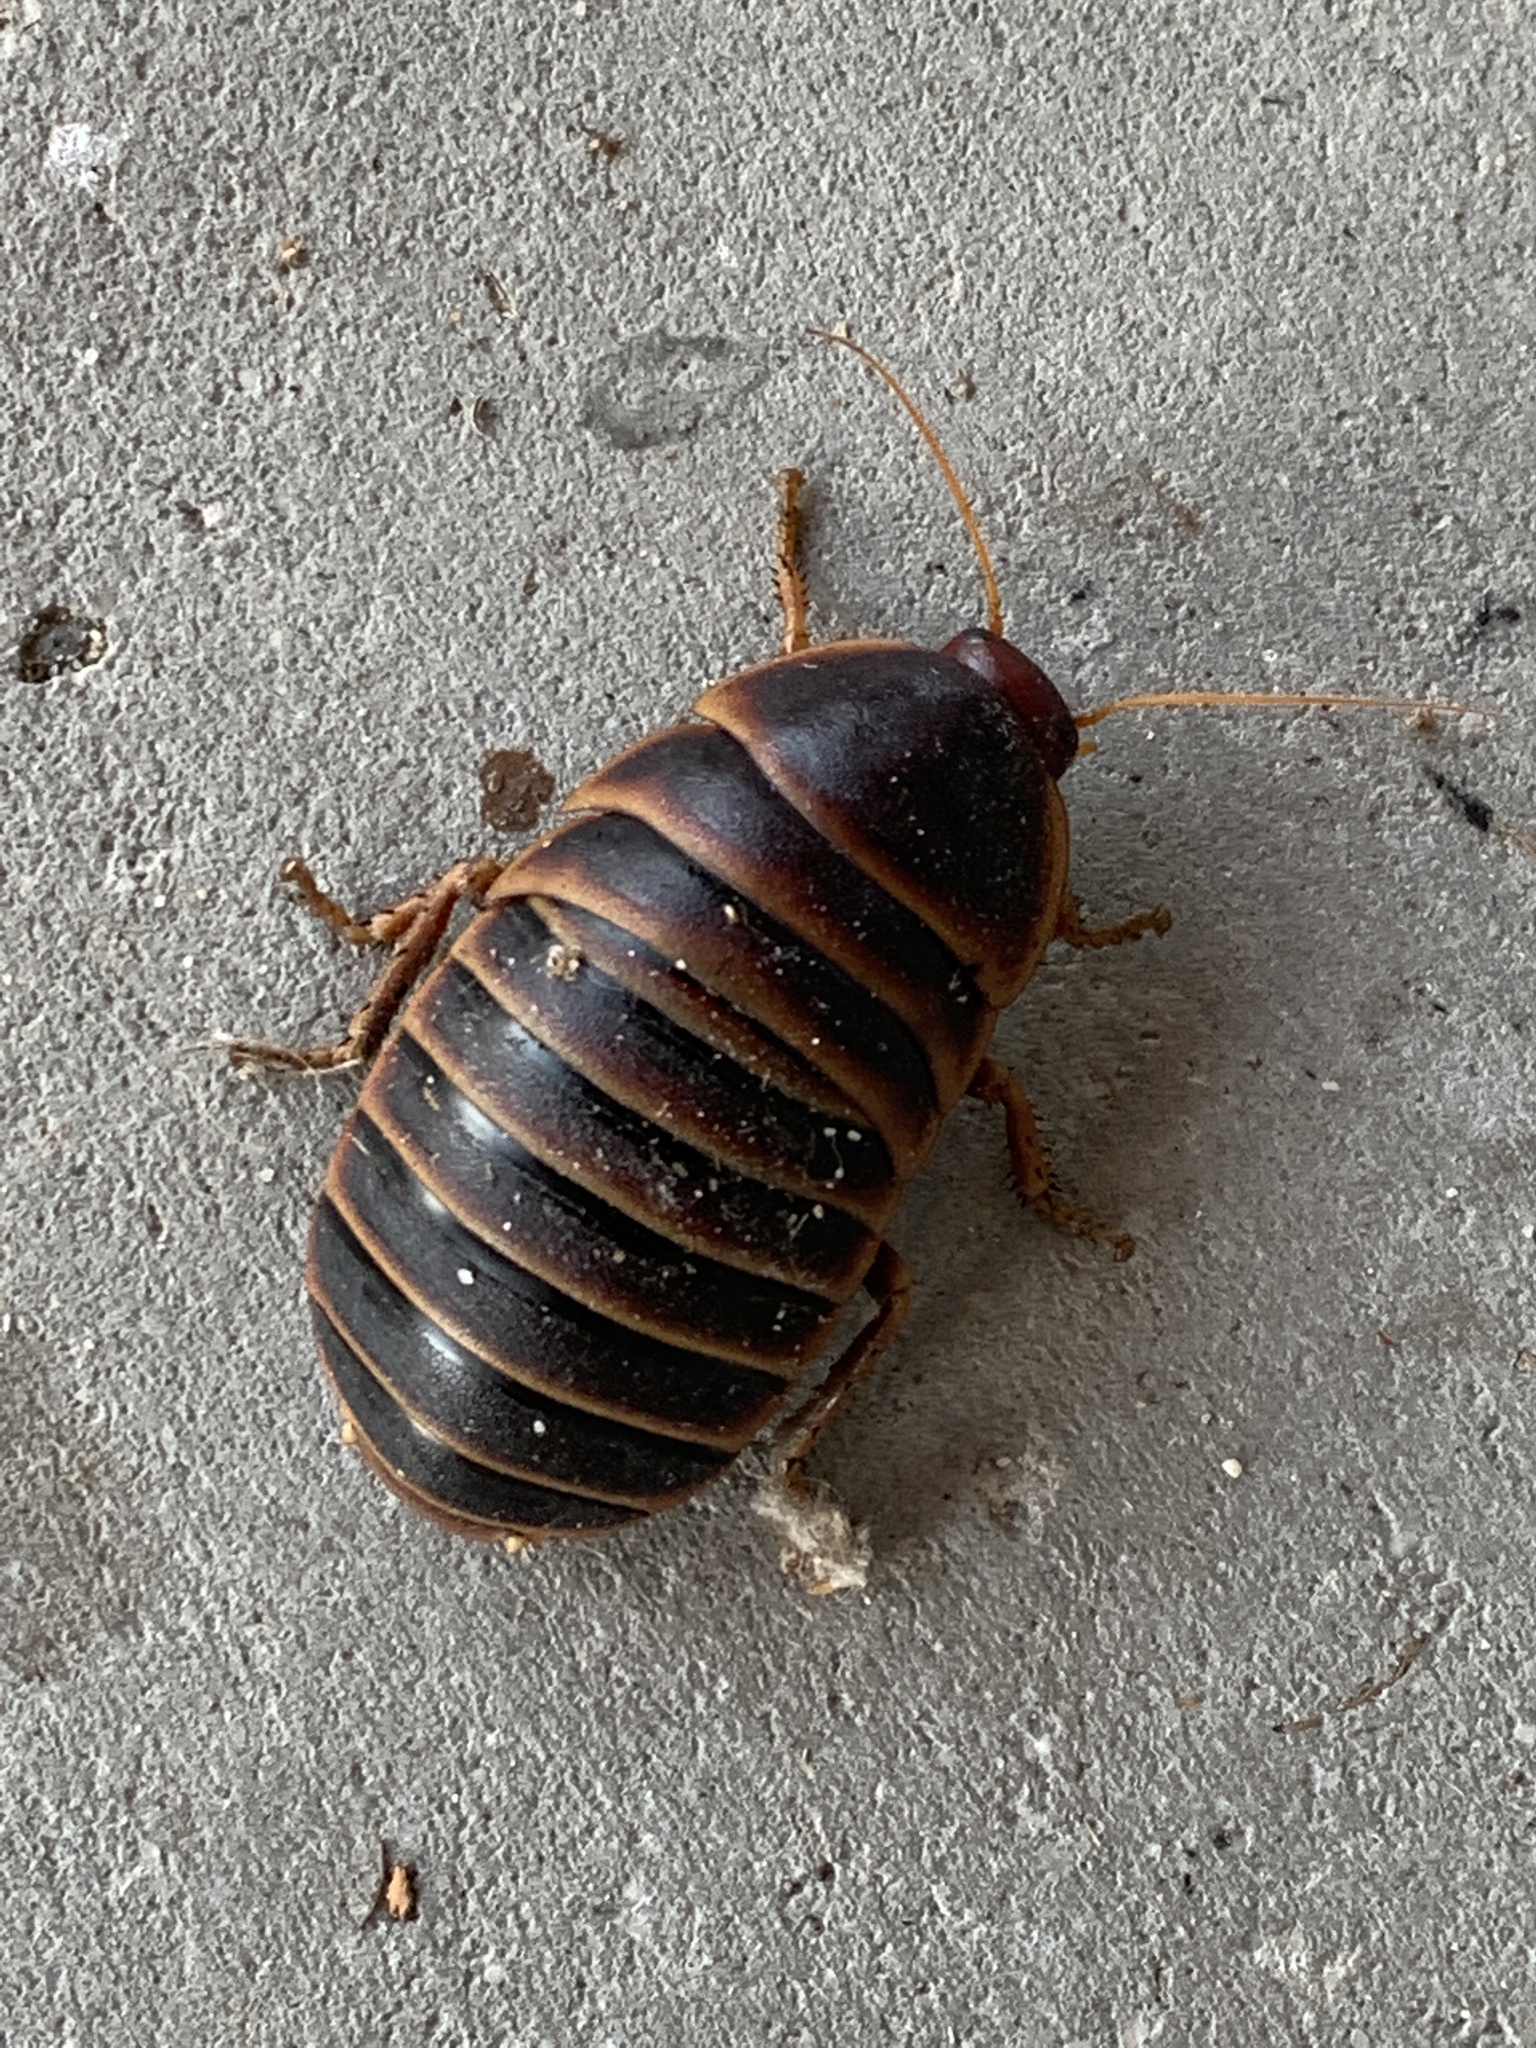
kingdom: Animalia
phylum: Arthropoda
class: Insecta
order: Blattodea
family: Blaberidae
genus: Aptera
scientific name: Aptera fusca
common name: Cape mountain cockroach
